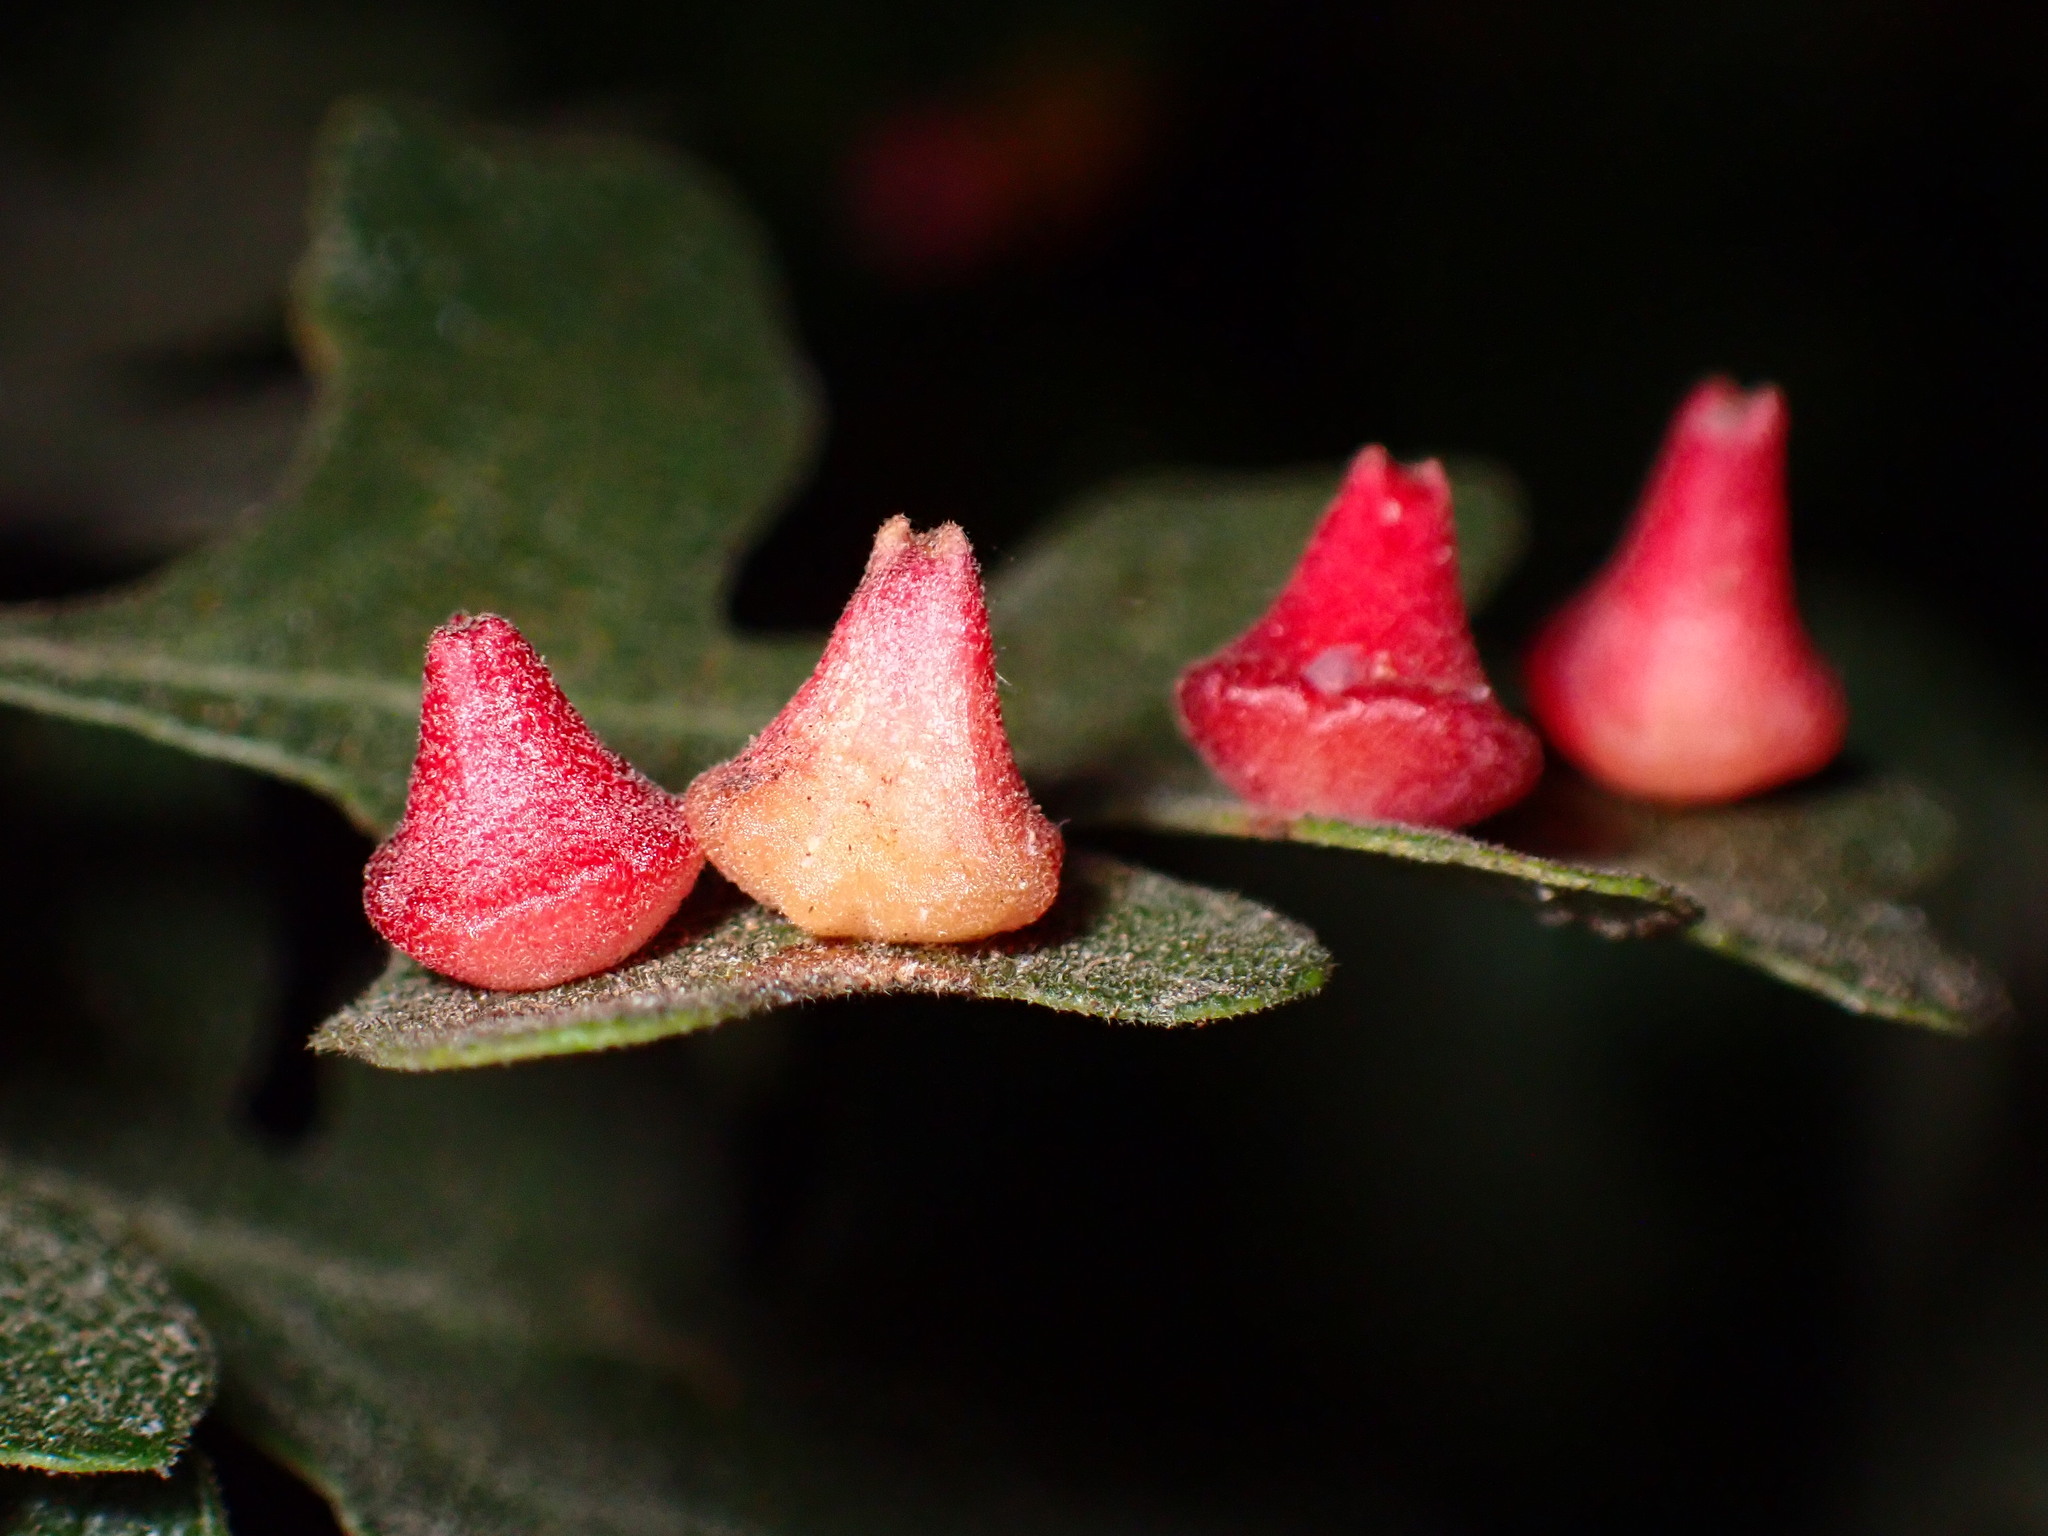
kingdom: Animalia
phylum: Arthropoda
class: Insecta
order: Hymenoptera
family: Cynipidae
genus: Andricus
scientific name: Andricus
